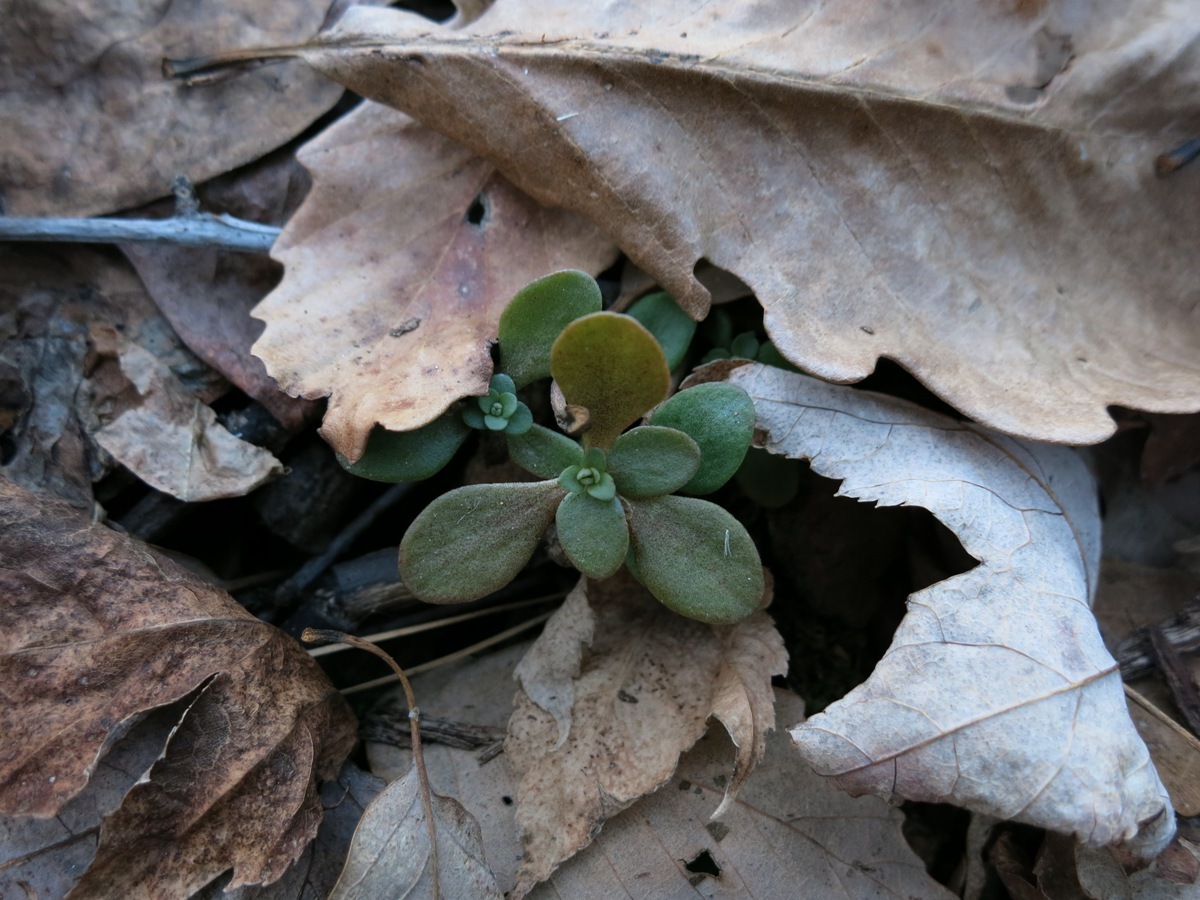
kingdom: Plantae
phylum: Tracheophyta
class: Magnoliopsida
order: Saxifragales
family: Crassulaceae
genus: Sedum
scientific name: Sedum ternatum
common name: Wild stonecrop
